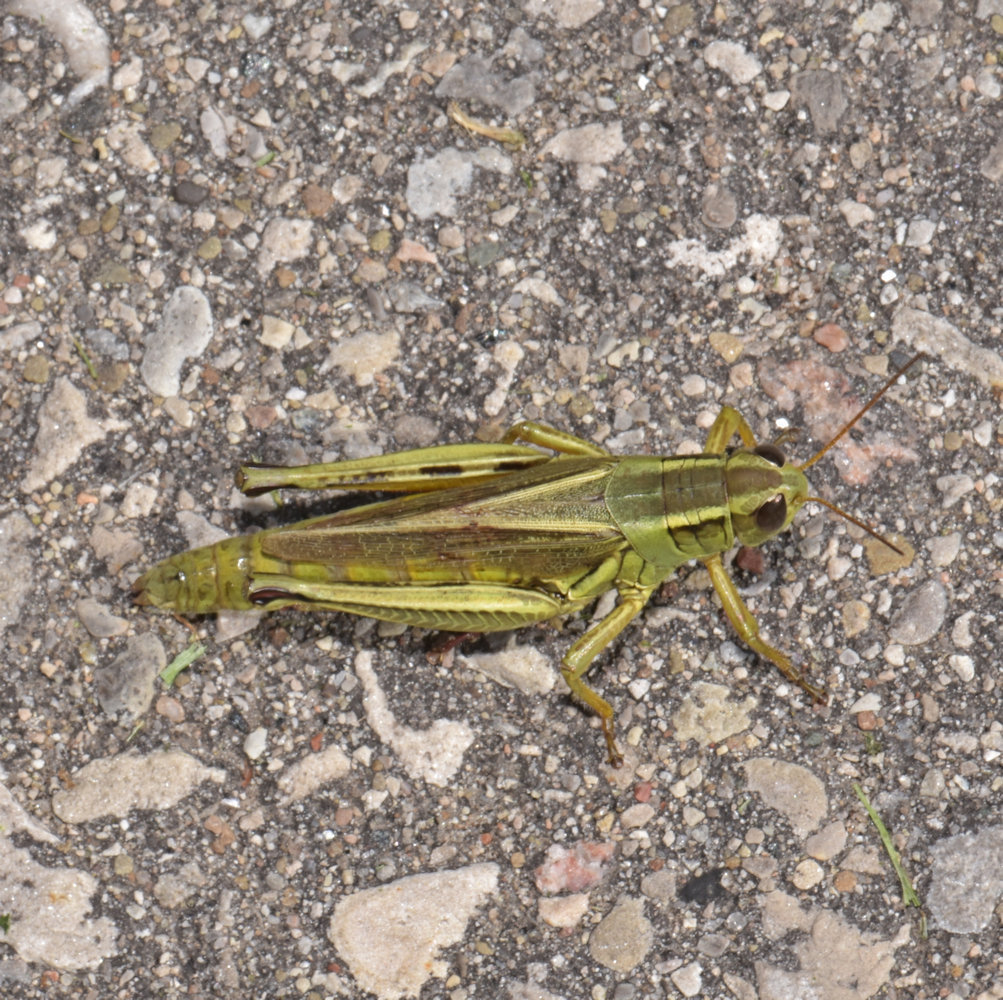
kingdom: Animalia
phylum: Arthropoda
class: Insecta
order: Orthoptera
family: Acrididae
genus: Melanoplus
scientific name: Melanoplus bivittatus
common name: Two-striped grasshopper
